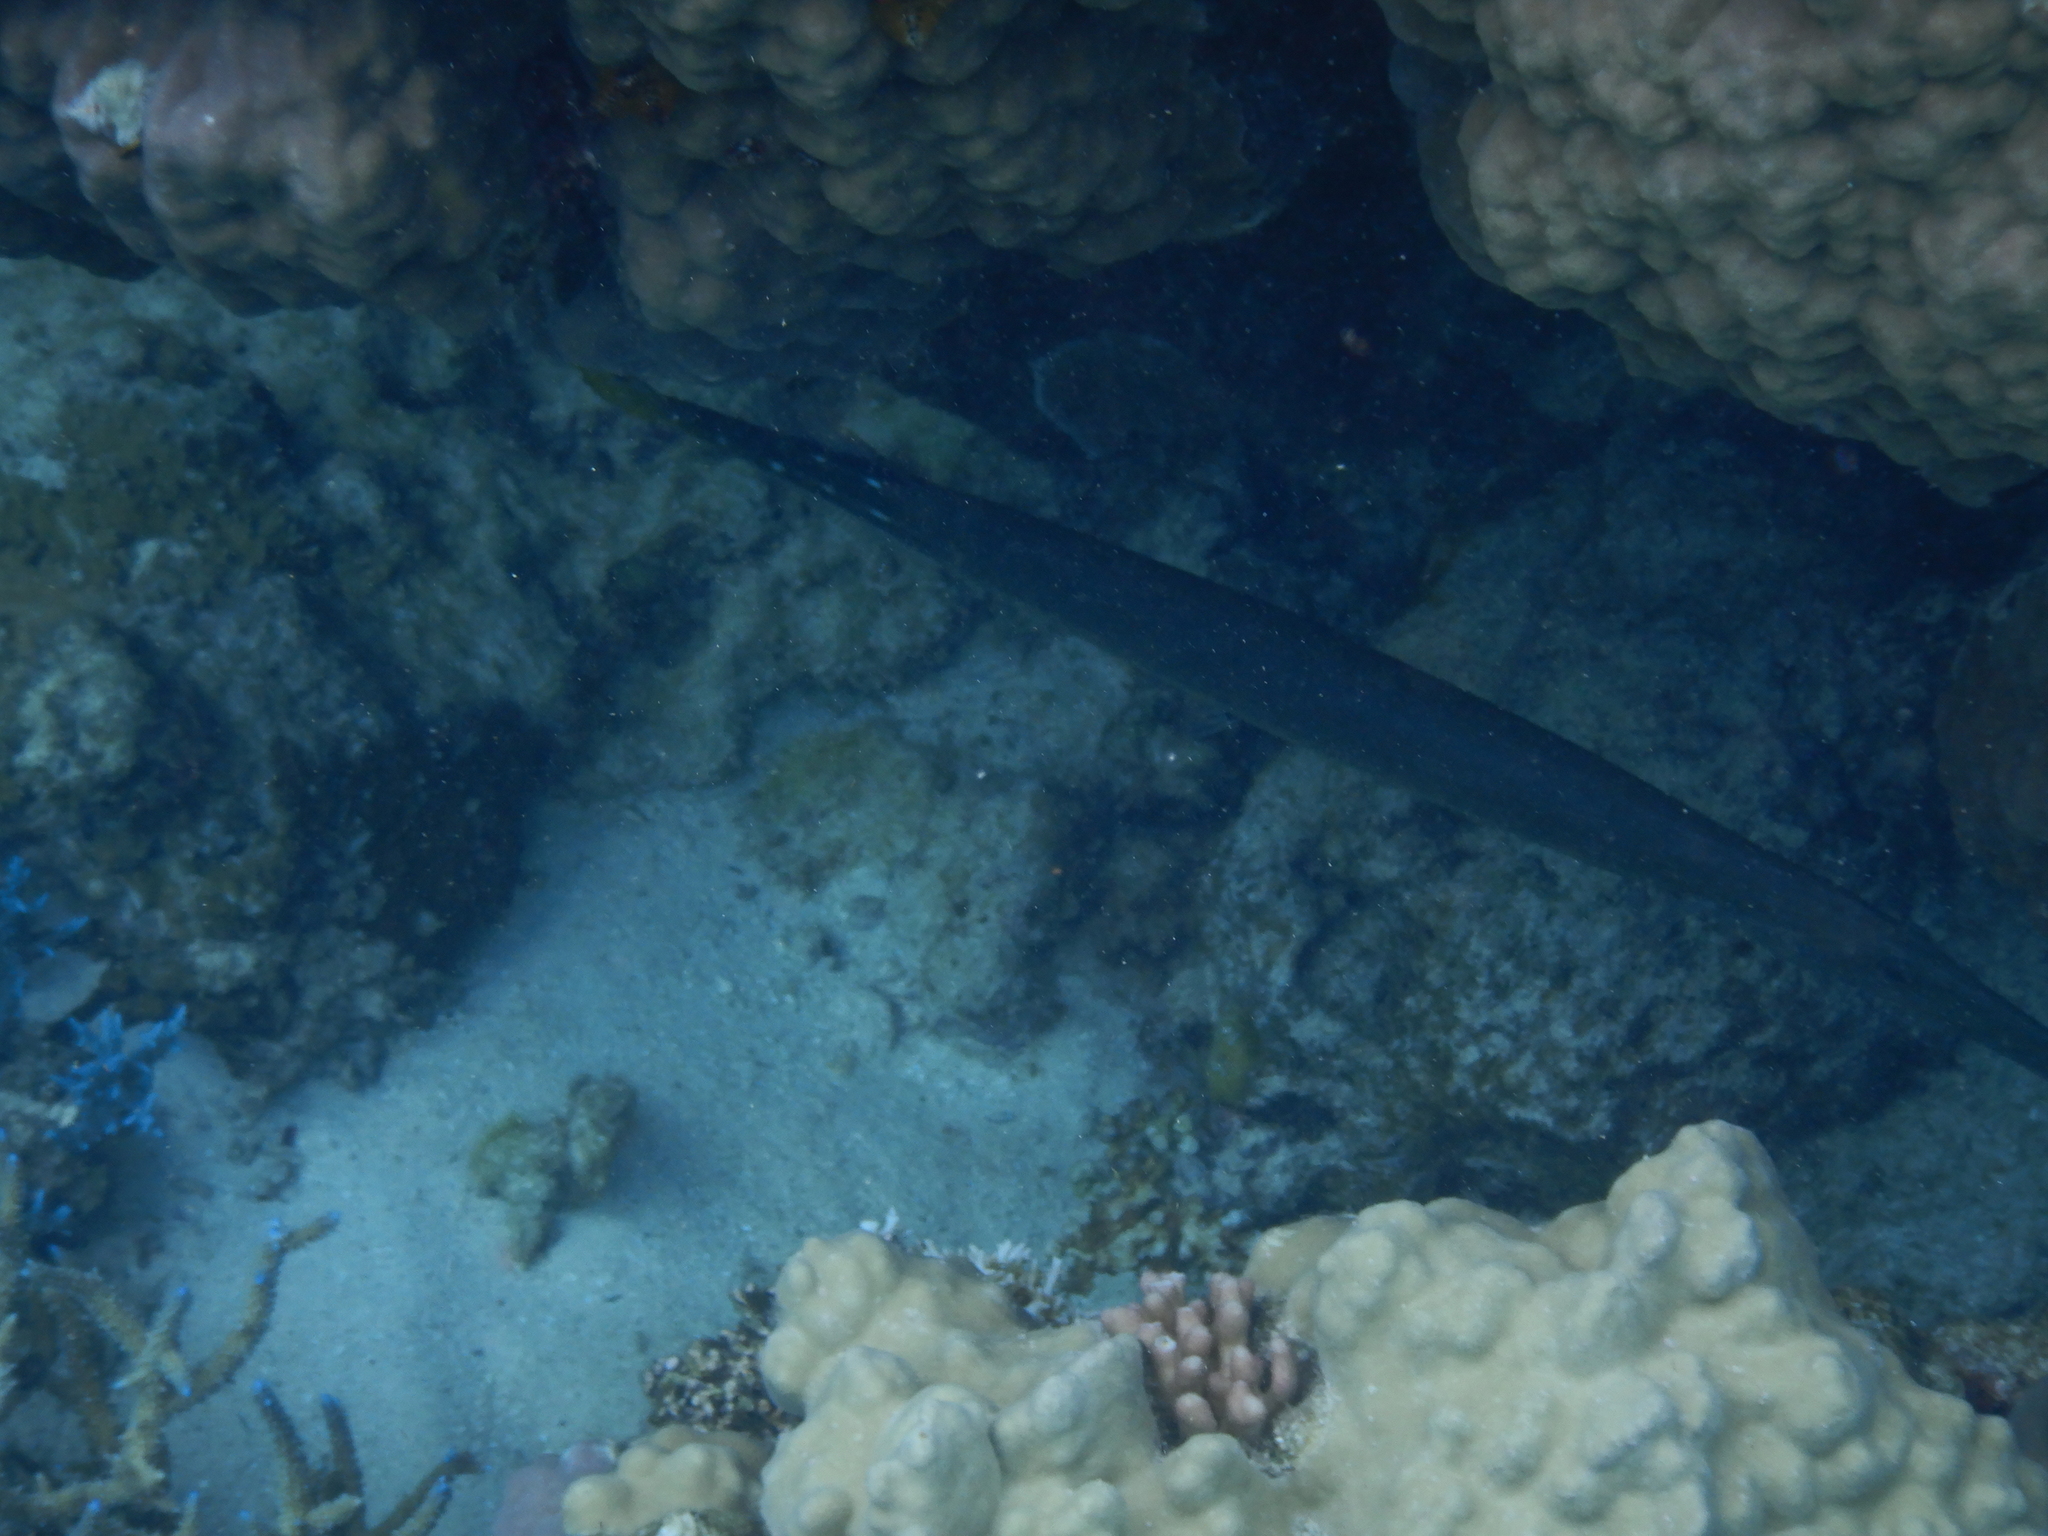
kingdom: Animalia
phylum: Chordata
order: Syngnathiformes
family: Aulostomidae
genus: Aulostomus
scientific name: Aulostomus chinensis
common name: Chinese trumpetfish
